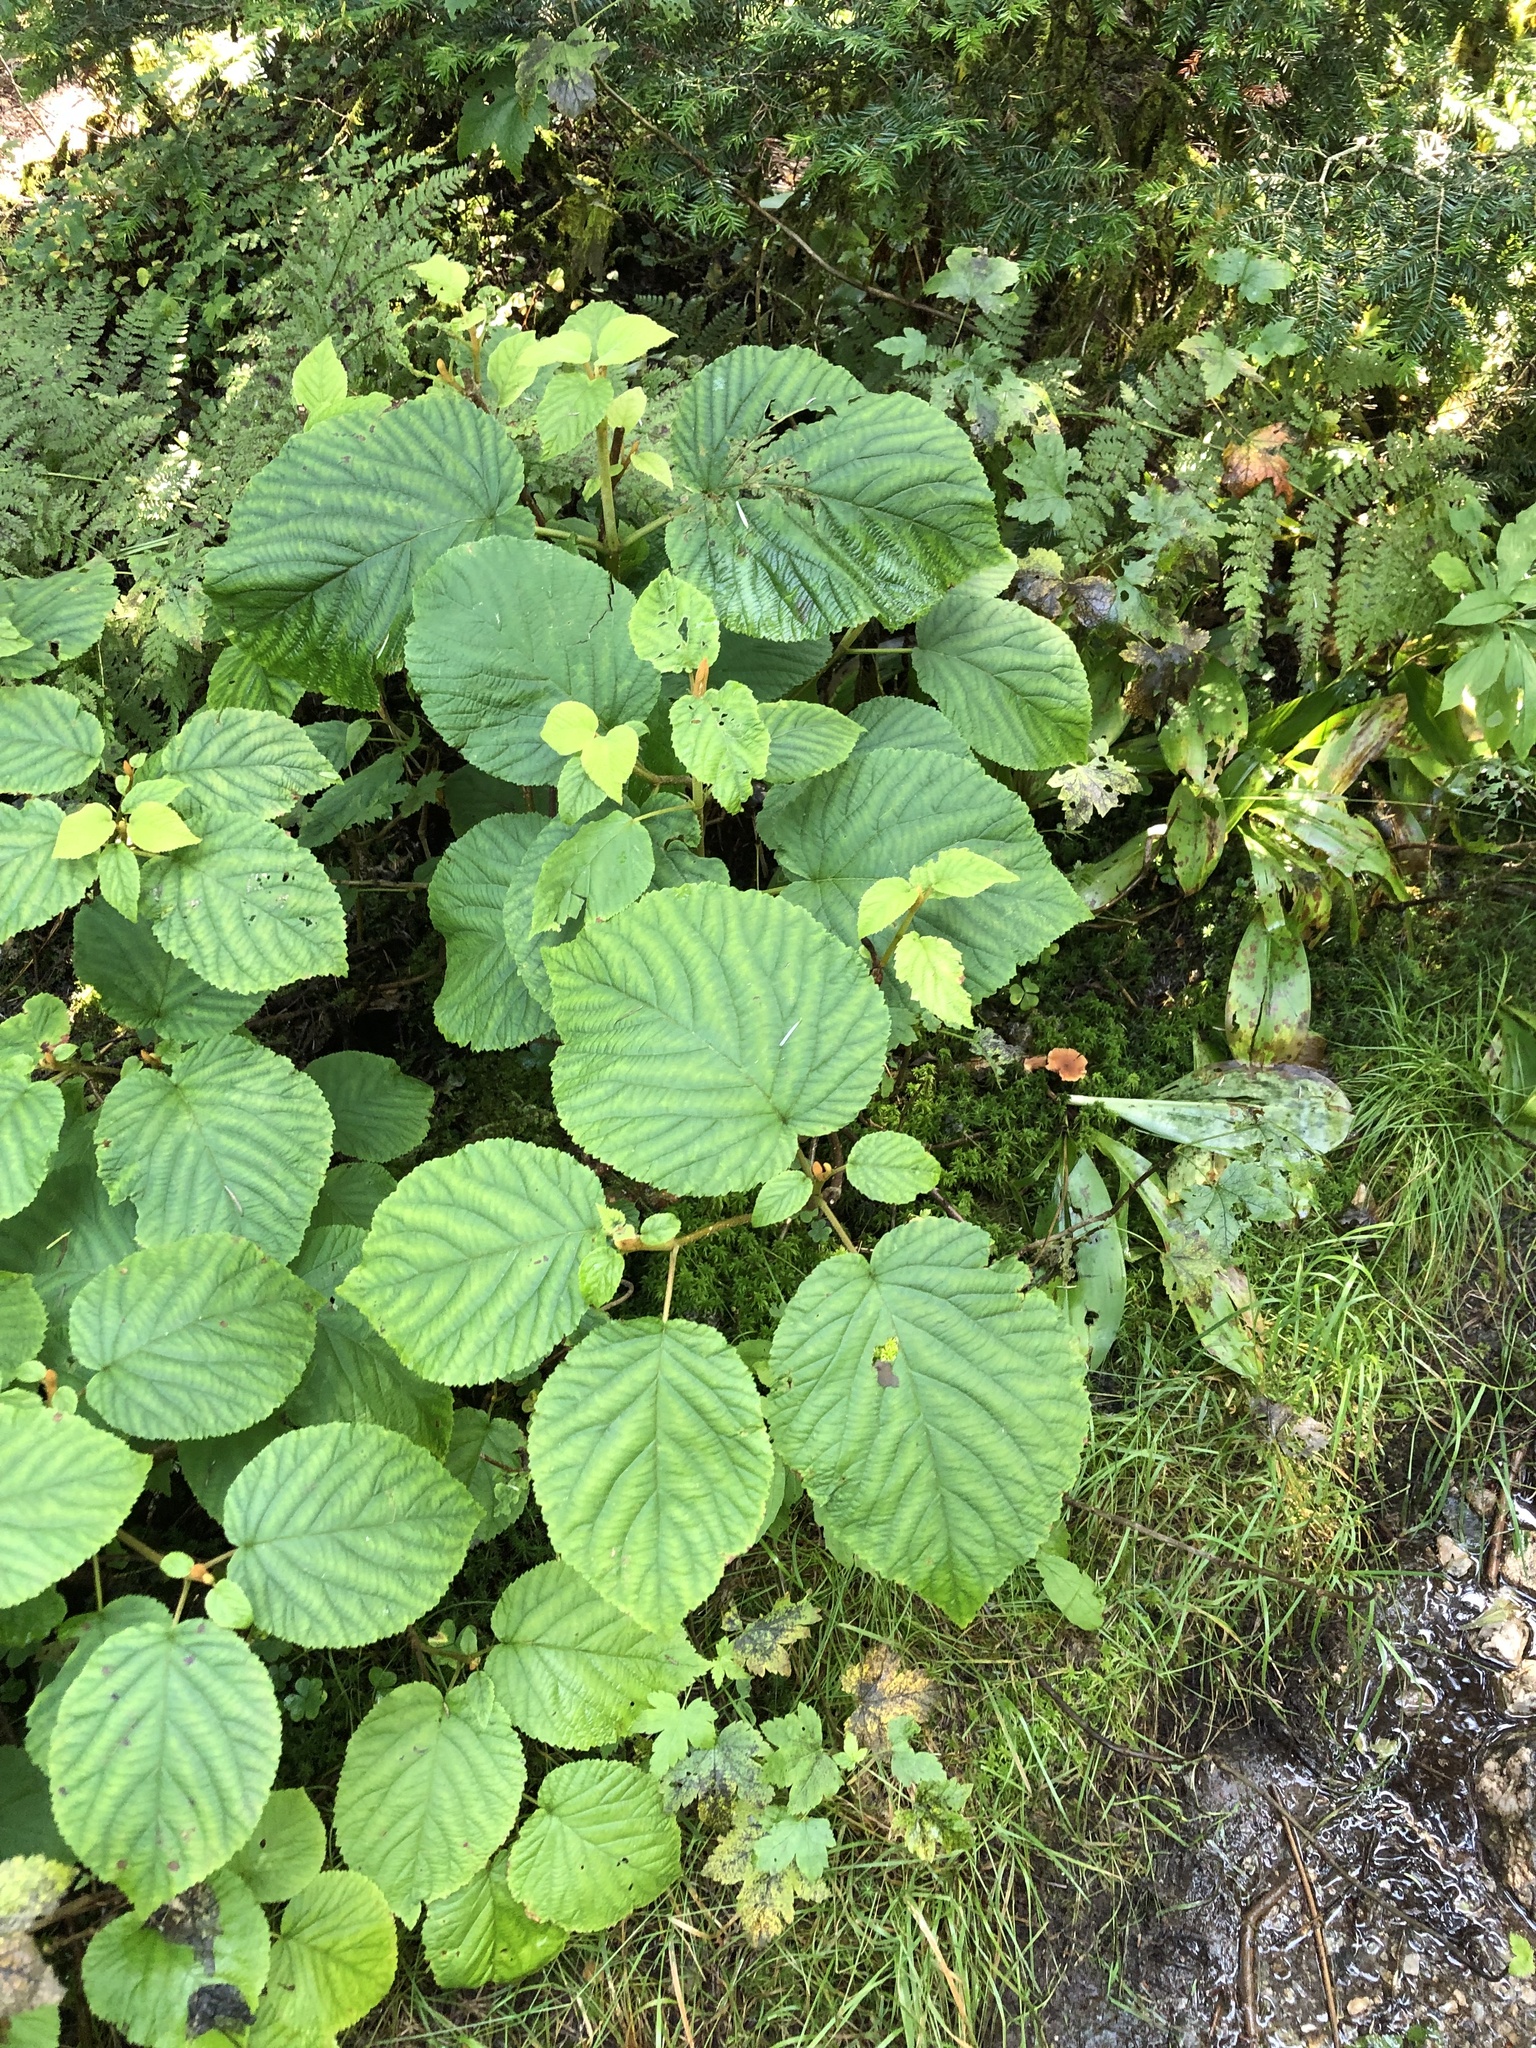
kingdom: Plantae
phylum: Tracheophyta
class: Magnoliopsida
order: Dipsacales
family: Viburnaceae
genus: Viburnum
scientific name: Viburnum lantanoides
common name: Hobblebush
